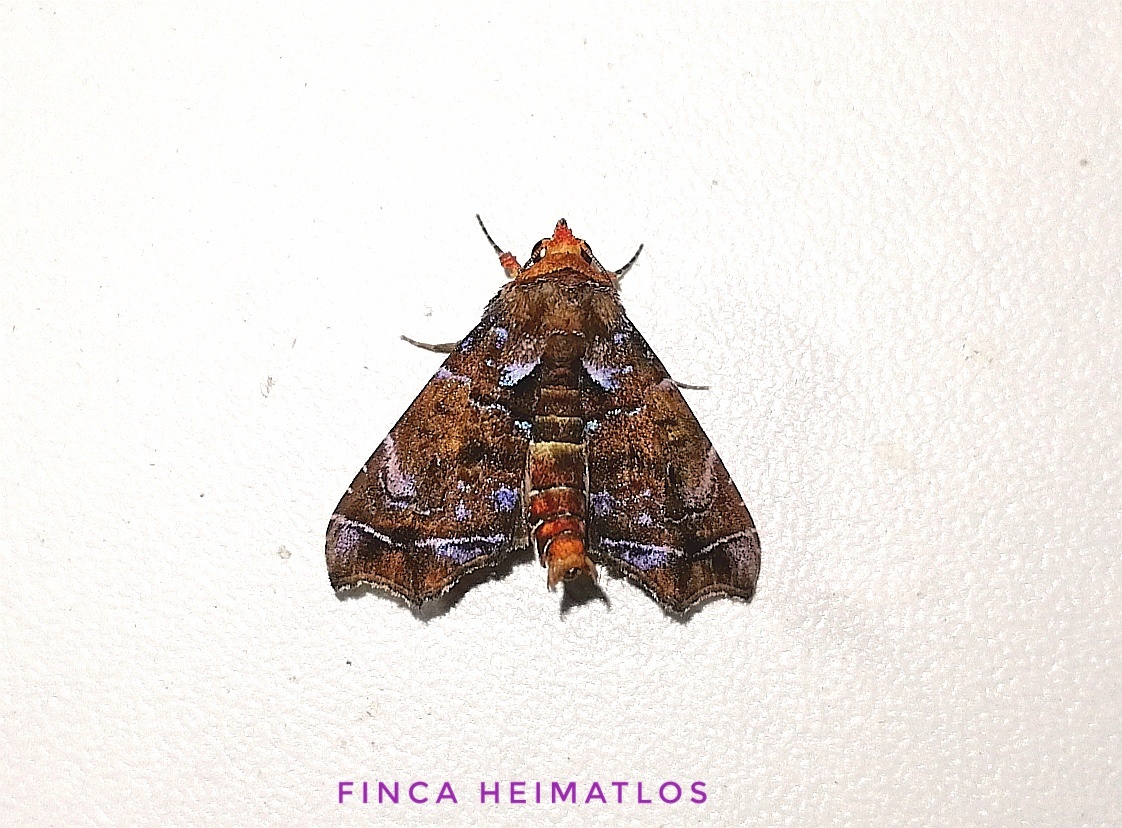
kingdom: Animalia
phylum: Arthropoda
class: Insecta
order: Lepidoptera
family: Erebidae
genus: Cecharismena
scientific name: Cecharismena melicerta
